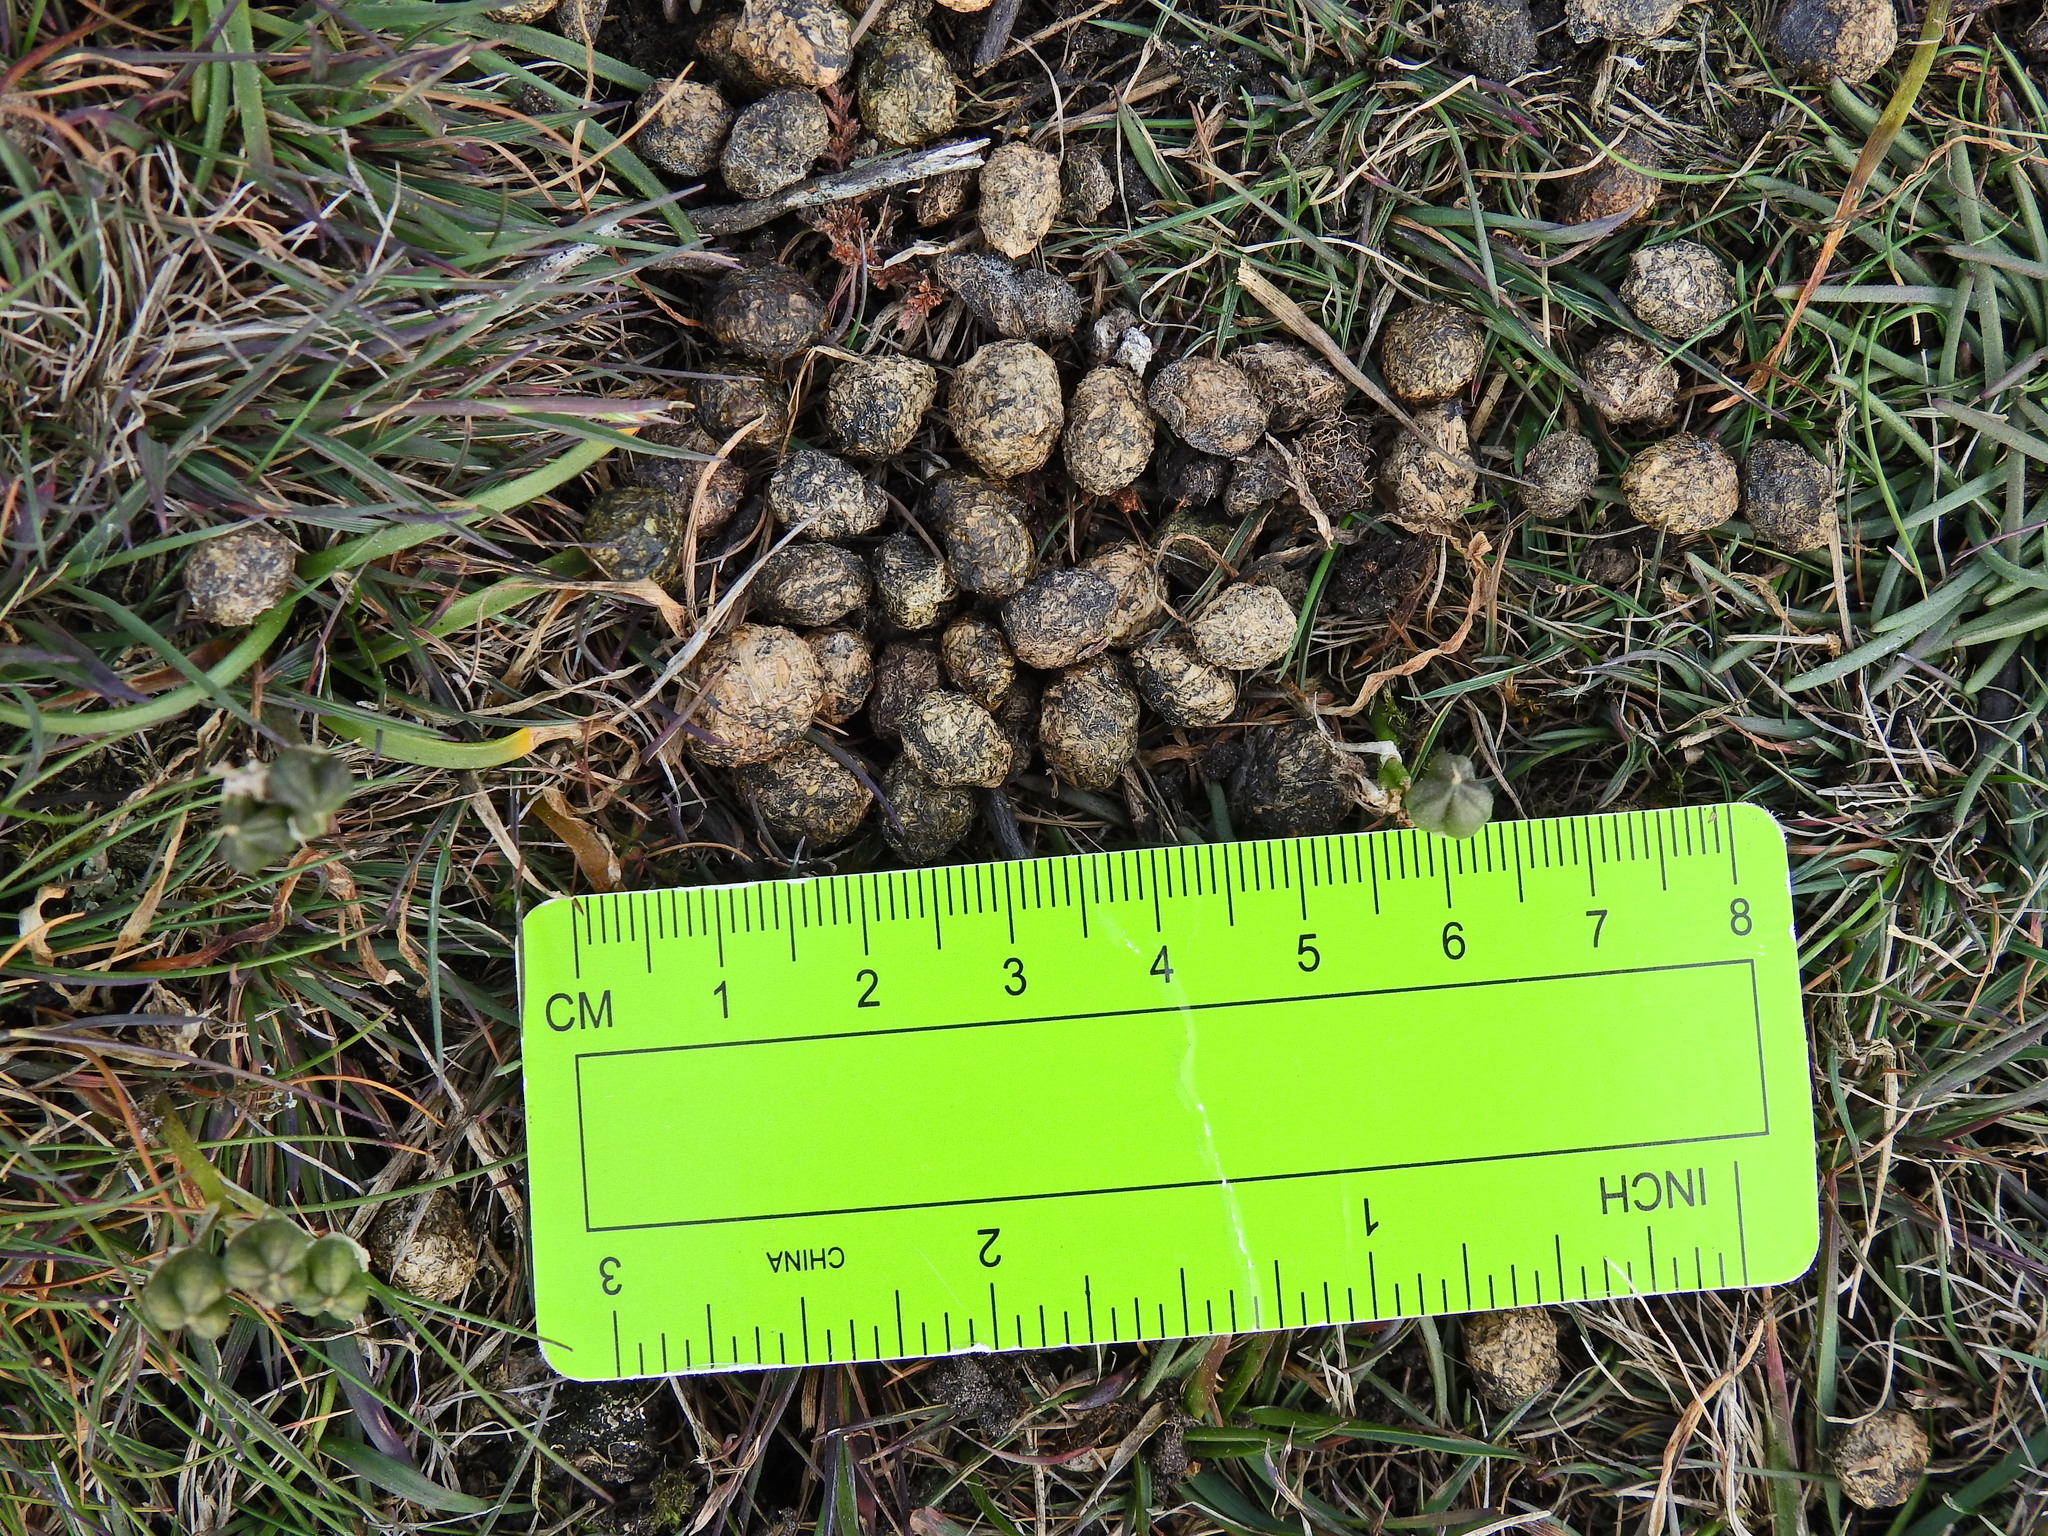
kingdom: Animalia
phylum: Chordata
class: Mammalia
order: Lagomorpha
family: Leporidae
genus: Oryctolagus
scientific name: Oryctolagus cuniculus
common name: European rabbit
